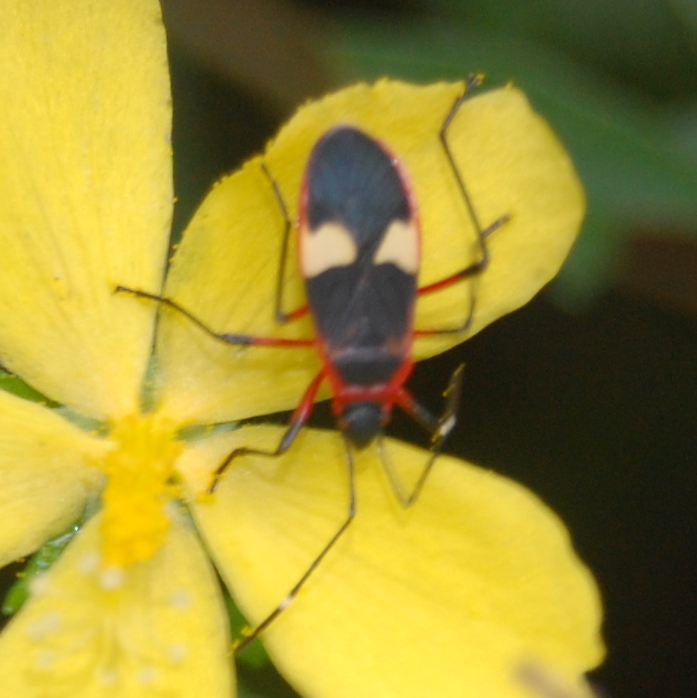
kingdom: Animalia
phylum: Arthropoda
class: Insecta
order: Hemiptera
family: Pyrrhocoridae
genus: Dysdercus
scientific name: Dysdercus albofasciatus
